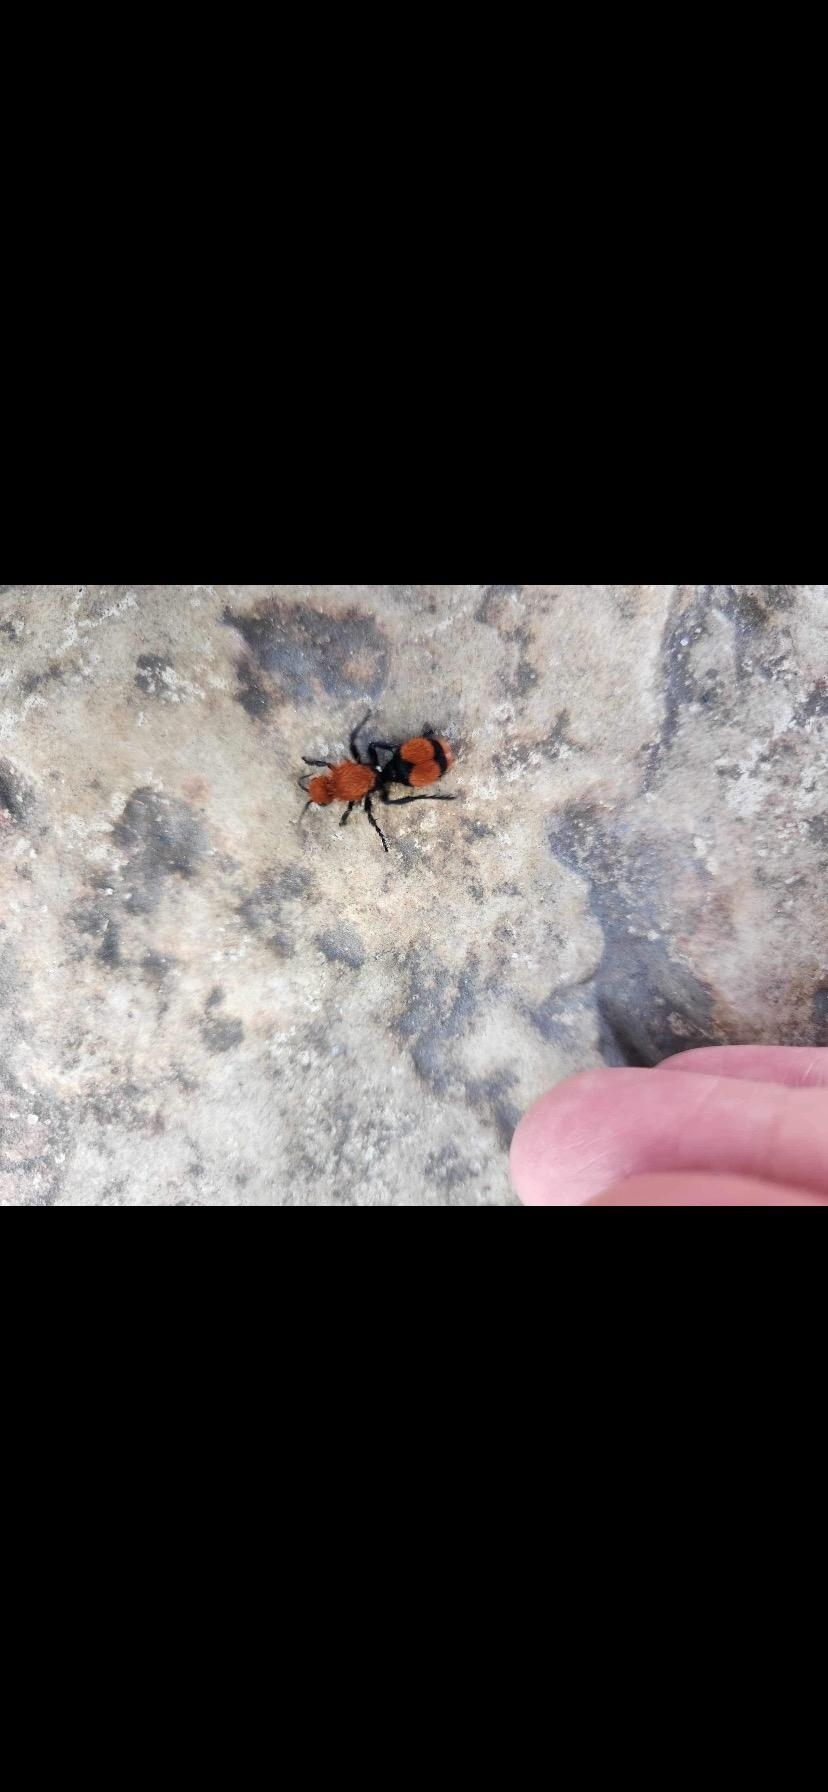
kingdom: Animalia
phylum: Arthropoda
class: Insecta
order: Hymenoptera
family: Mutillidae
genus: Dasymutilla
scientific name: Dasymutilla occidentalis
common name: Common eastern velvet ant
